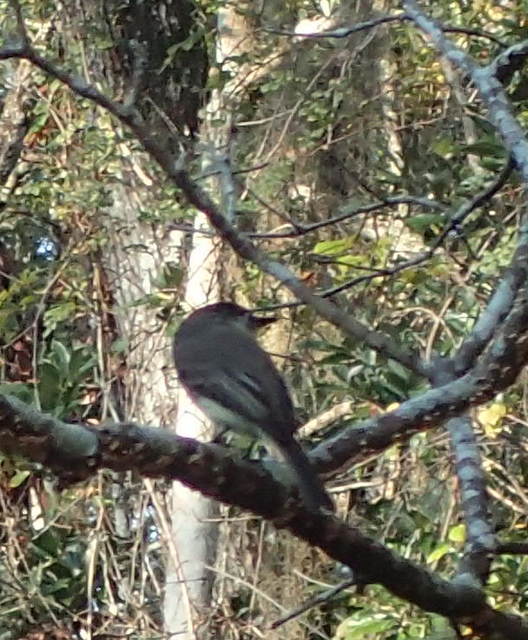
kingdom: Animalia
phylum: Chordata
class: Aves
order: Passeriformes
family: Tyrannidae
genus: Sayornis
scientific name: Sayornis phoebe
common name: Eastern phoebe
